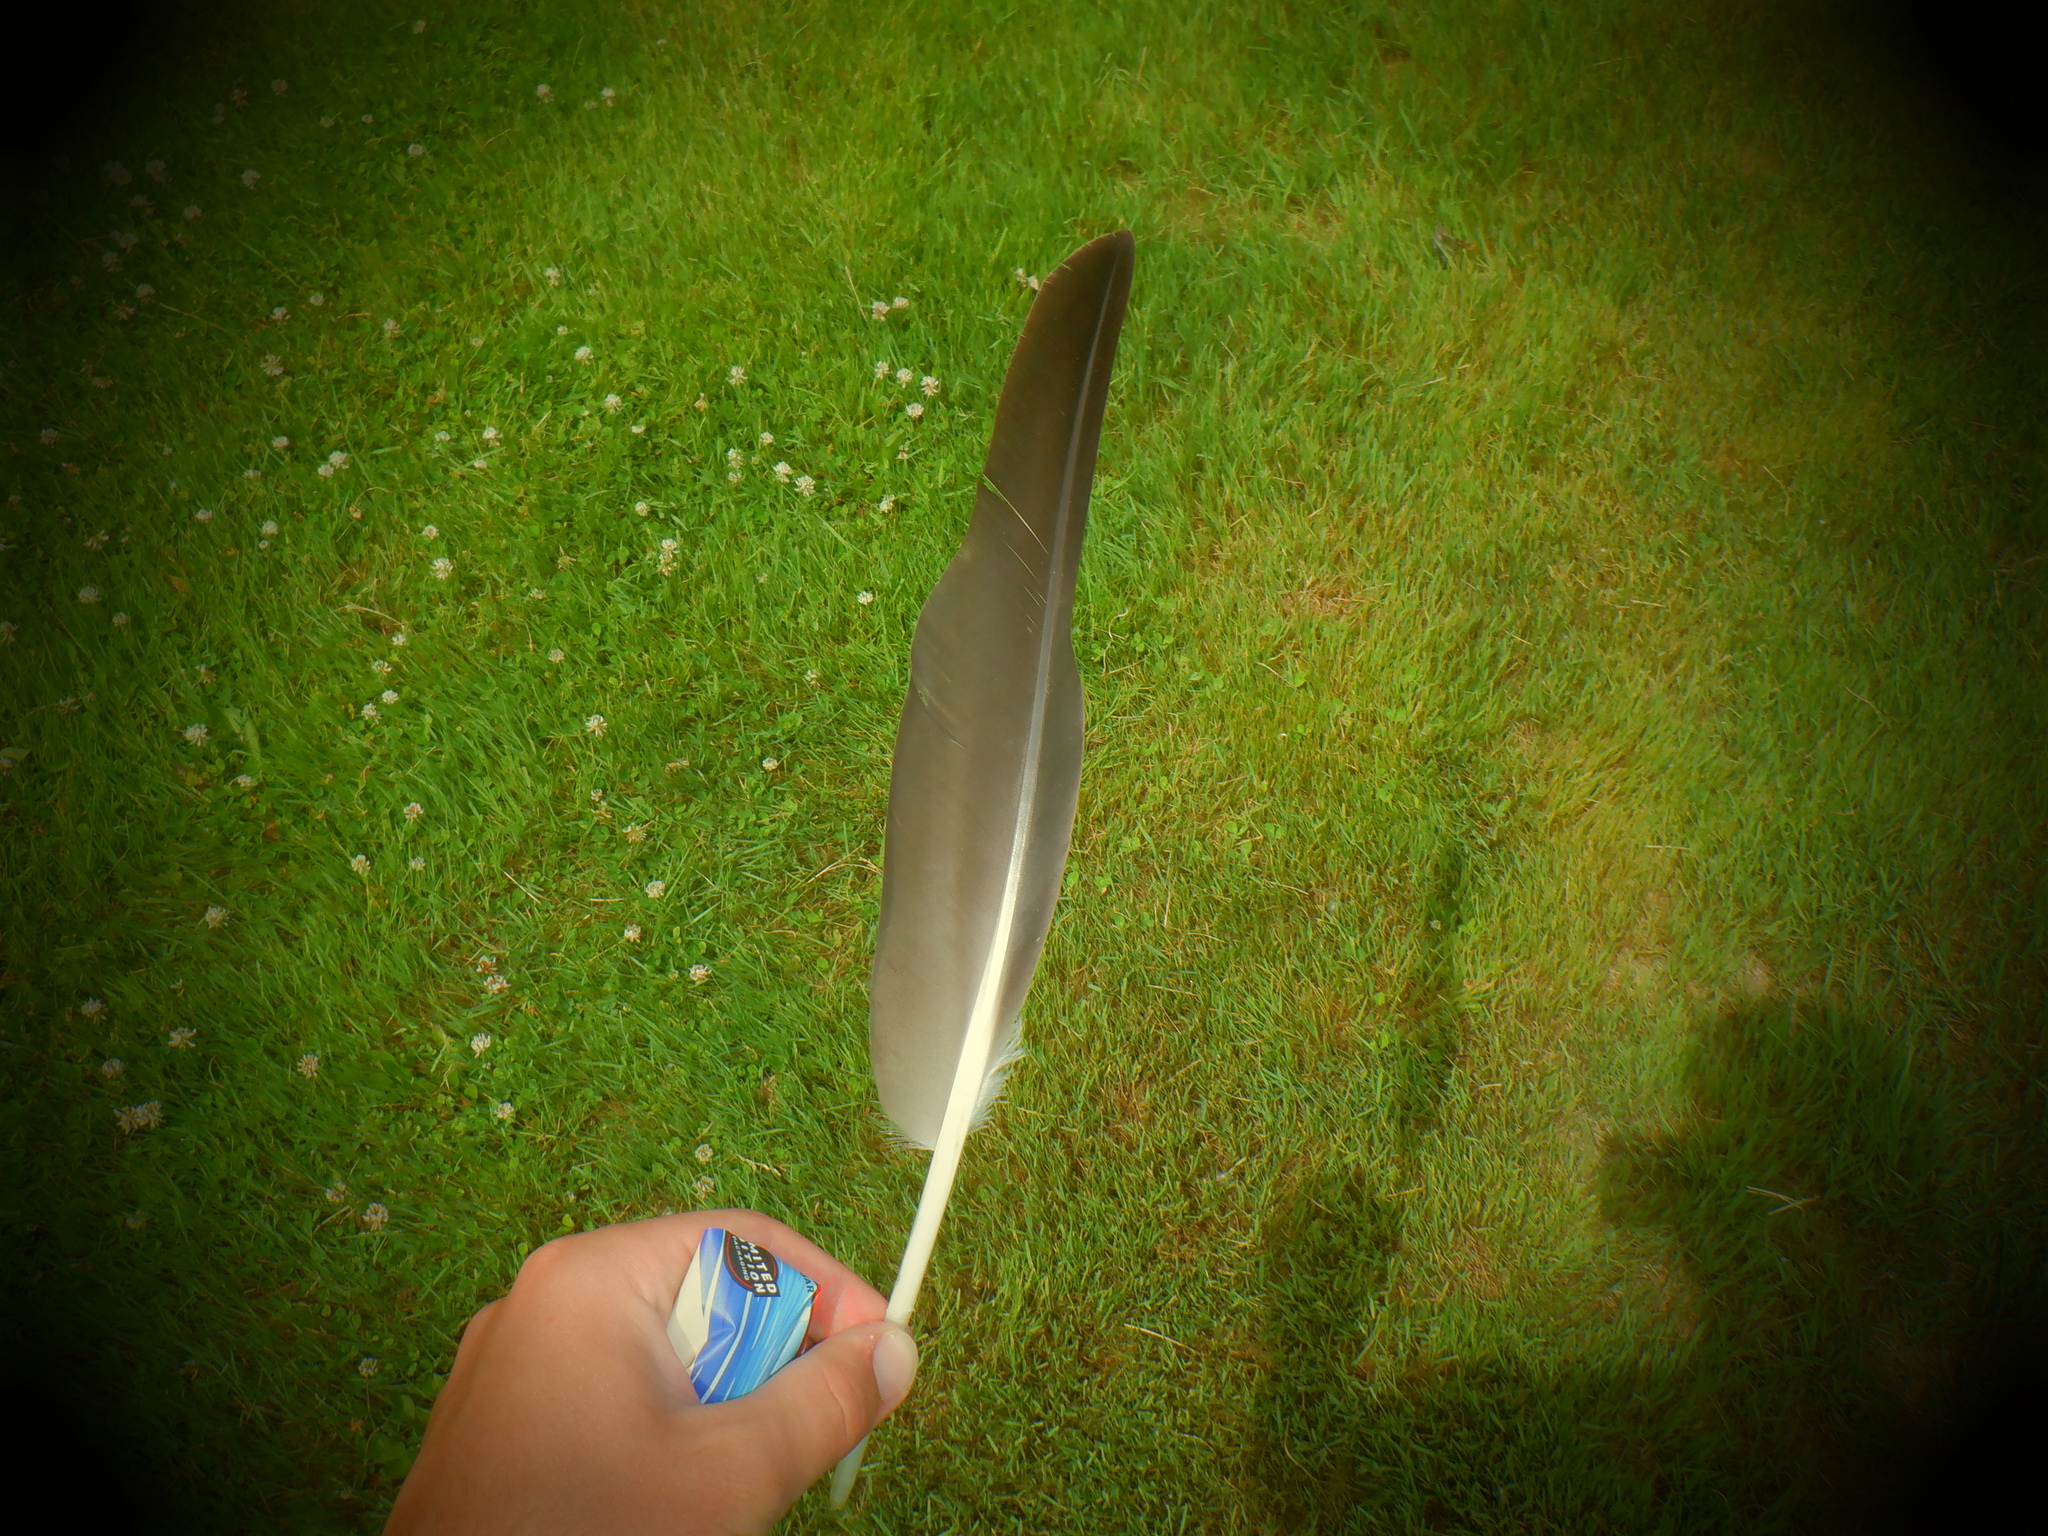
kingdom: Animalia
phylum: Chordata
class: Aves
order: Anseriformes
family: Anatidae
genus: Branta
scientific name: Branta canadensis
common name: Canada goose
